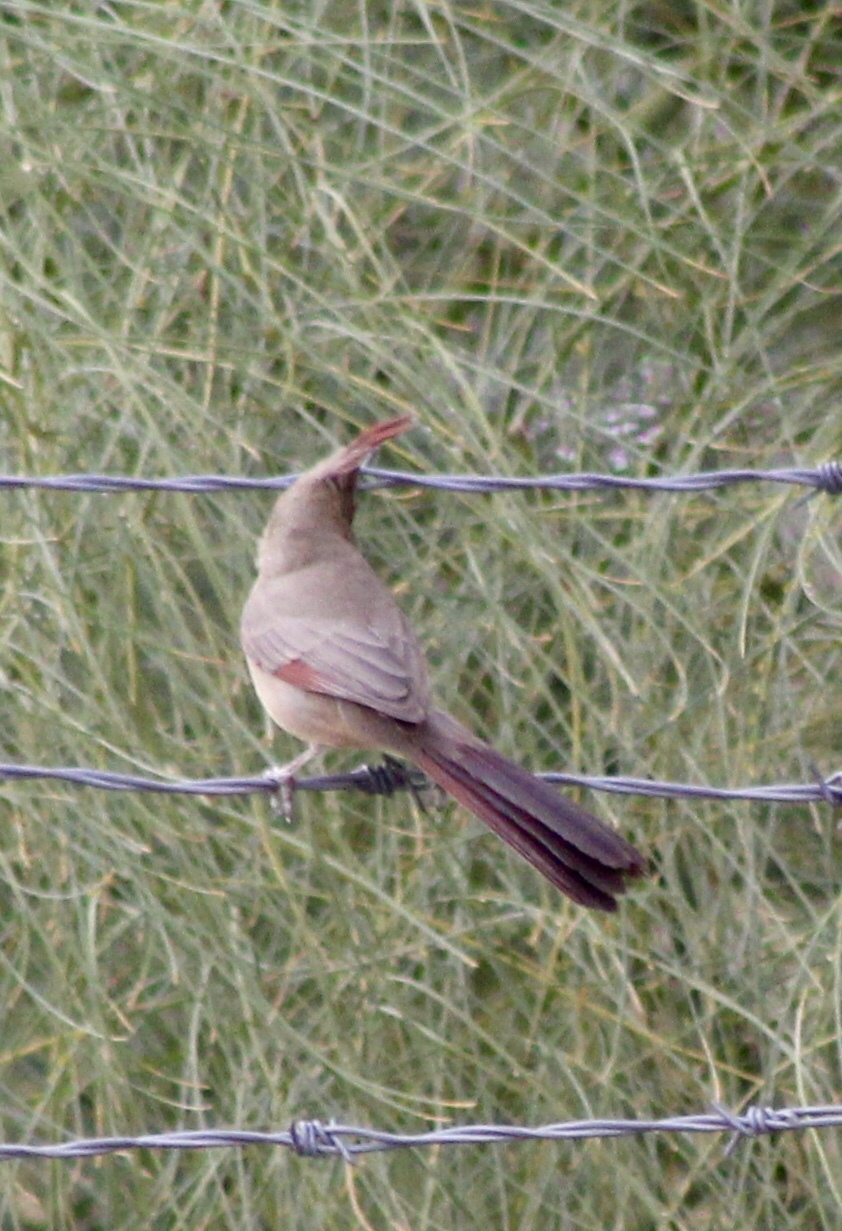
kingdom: Animalia
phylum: Chordata
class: Aves
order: Passeriformes
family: Cardinalidae
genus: Cardinalis
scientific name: Cardinalis sinuatus
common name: Pyrrhuloxia
